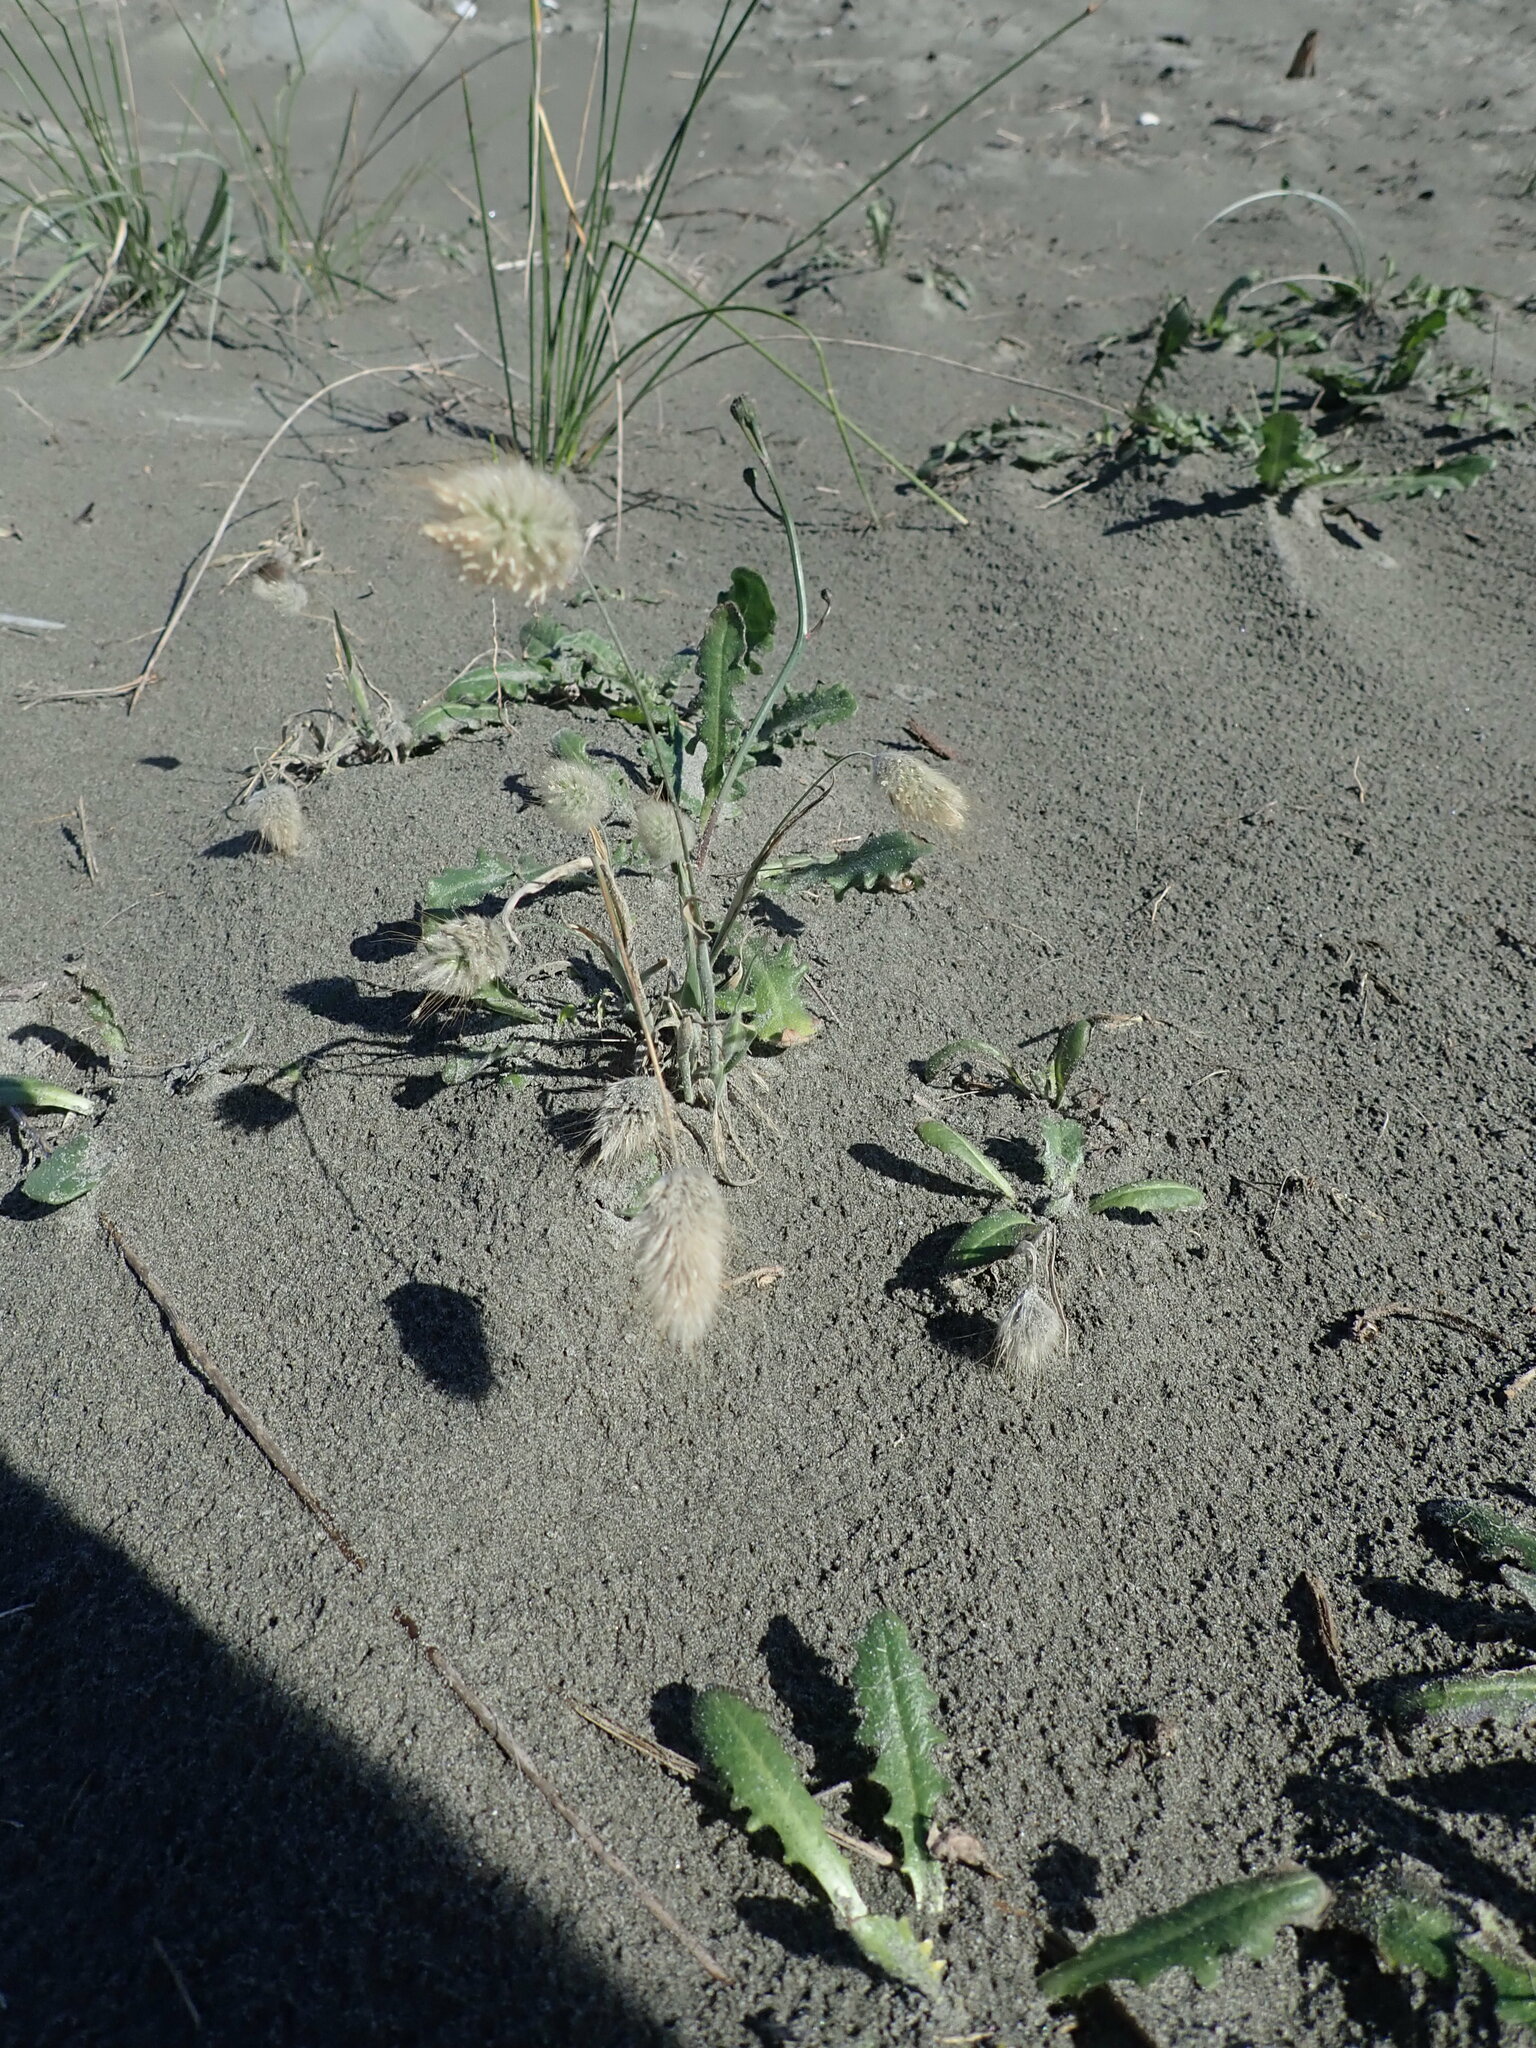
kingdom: Plantae
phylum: Tracheophyta
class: Liliopsida
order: Poales
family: Poaceae
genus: Lagurus
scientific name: Lagurus ovatus
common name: Hare's-tail
